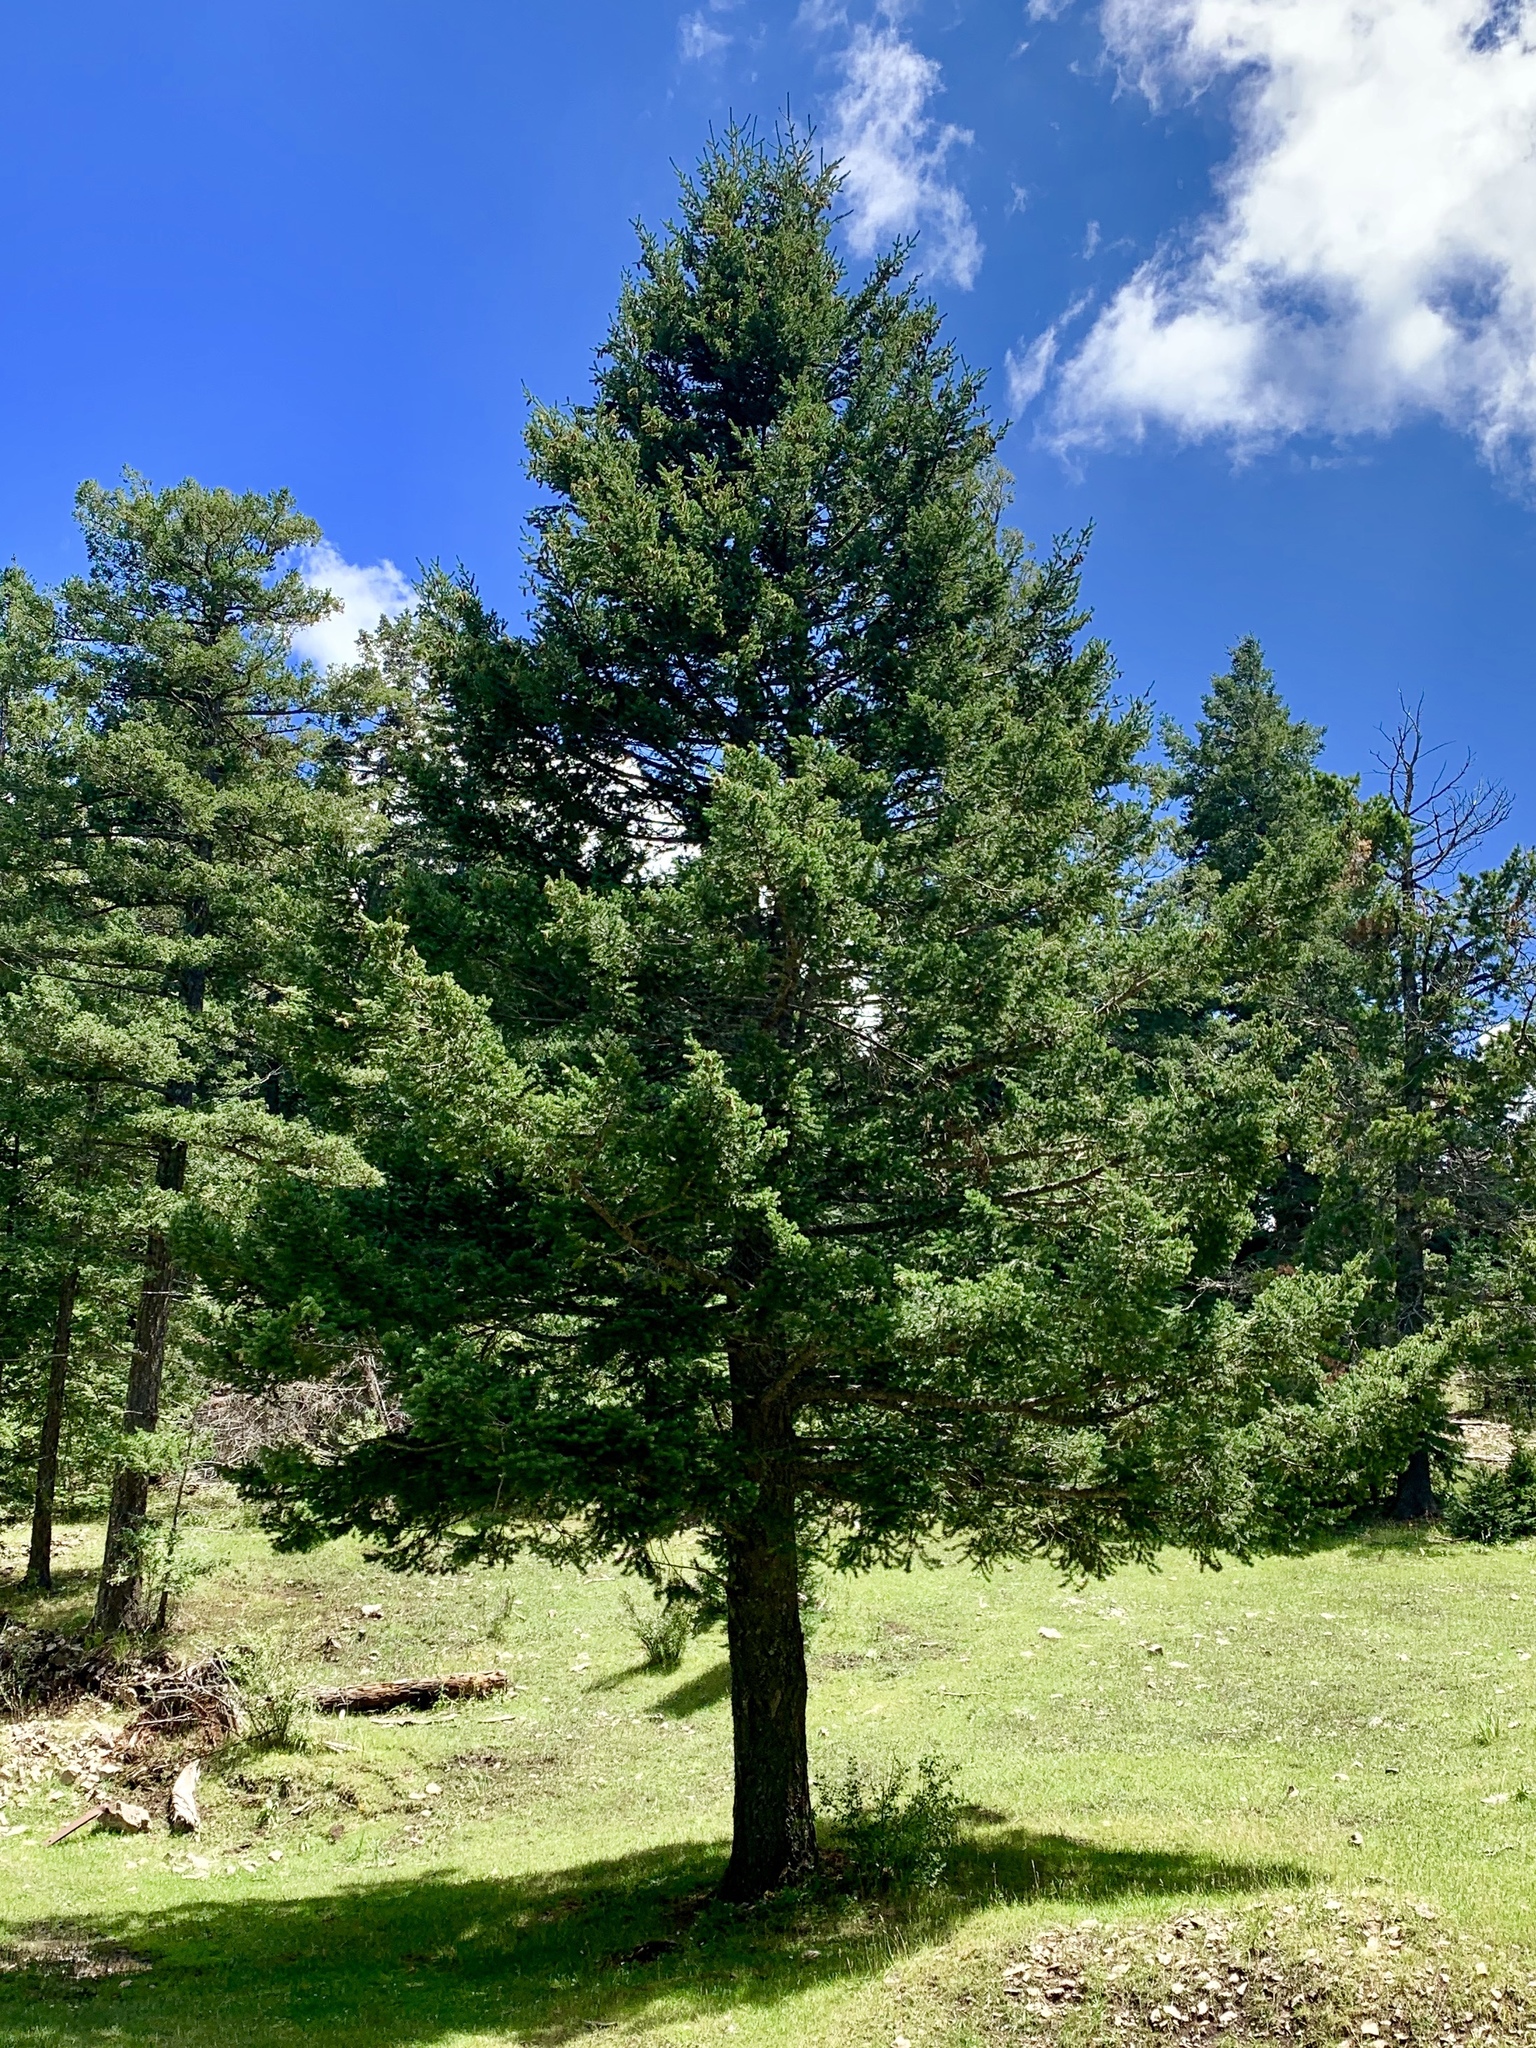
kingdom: Plantae
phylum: Tracheophyta
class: Pinopsida
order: Pinales
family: Pinaceae
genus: Pseudotsuga
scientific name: Pseudotsuga menziesii
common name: Douglas fir
